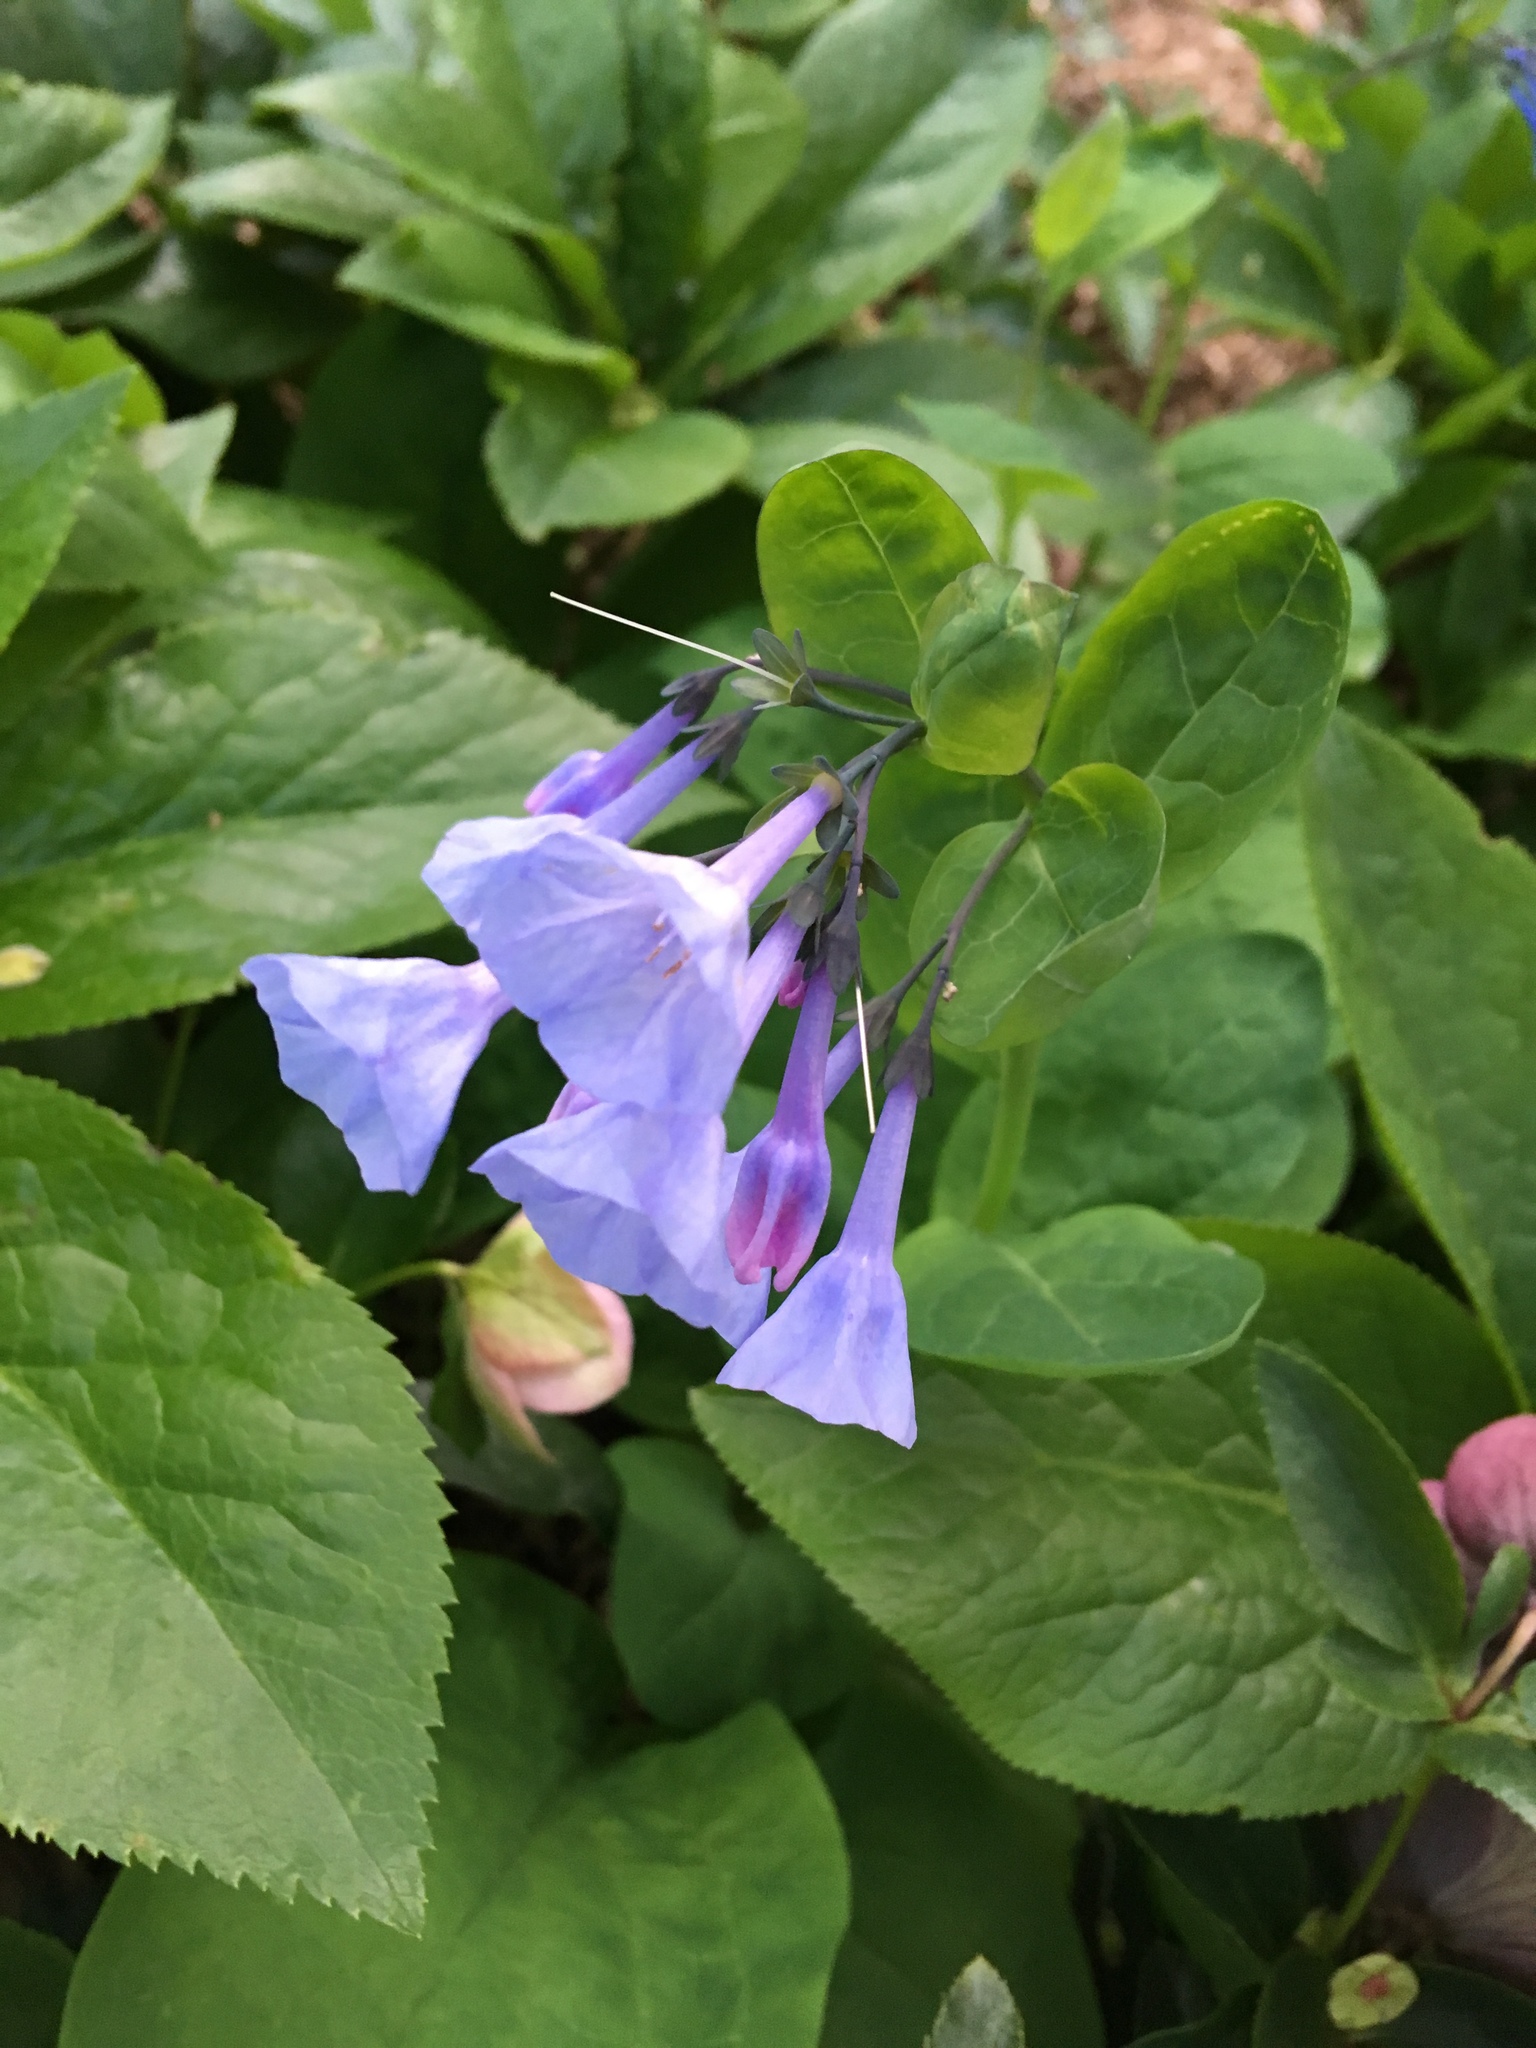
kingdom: Plantae
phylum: Tracheophyta
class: Magnoliopsida
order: Boraginales
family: Boraginaceae
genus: Mertensia
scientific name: Mertensia virginica
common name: Virginia bluebells
